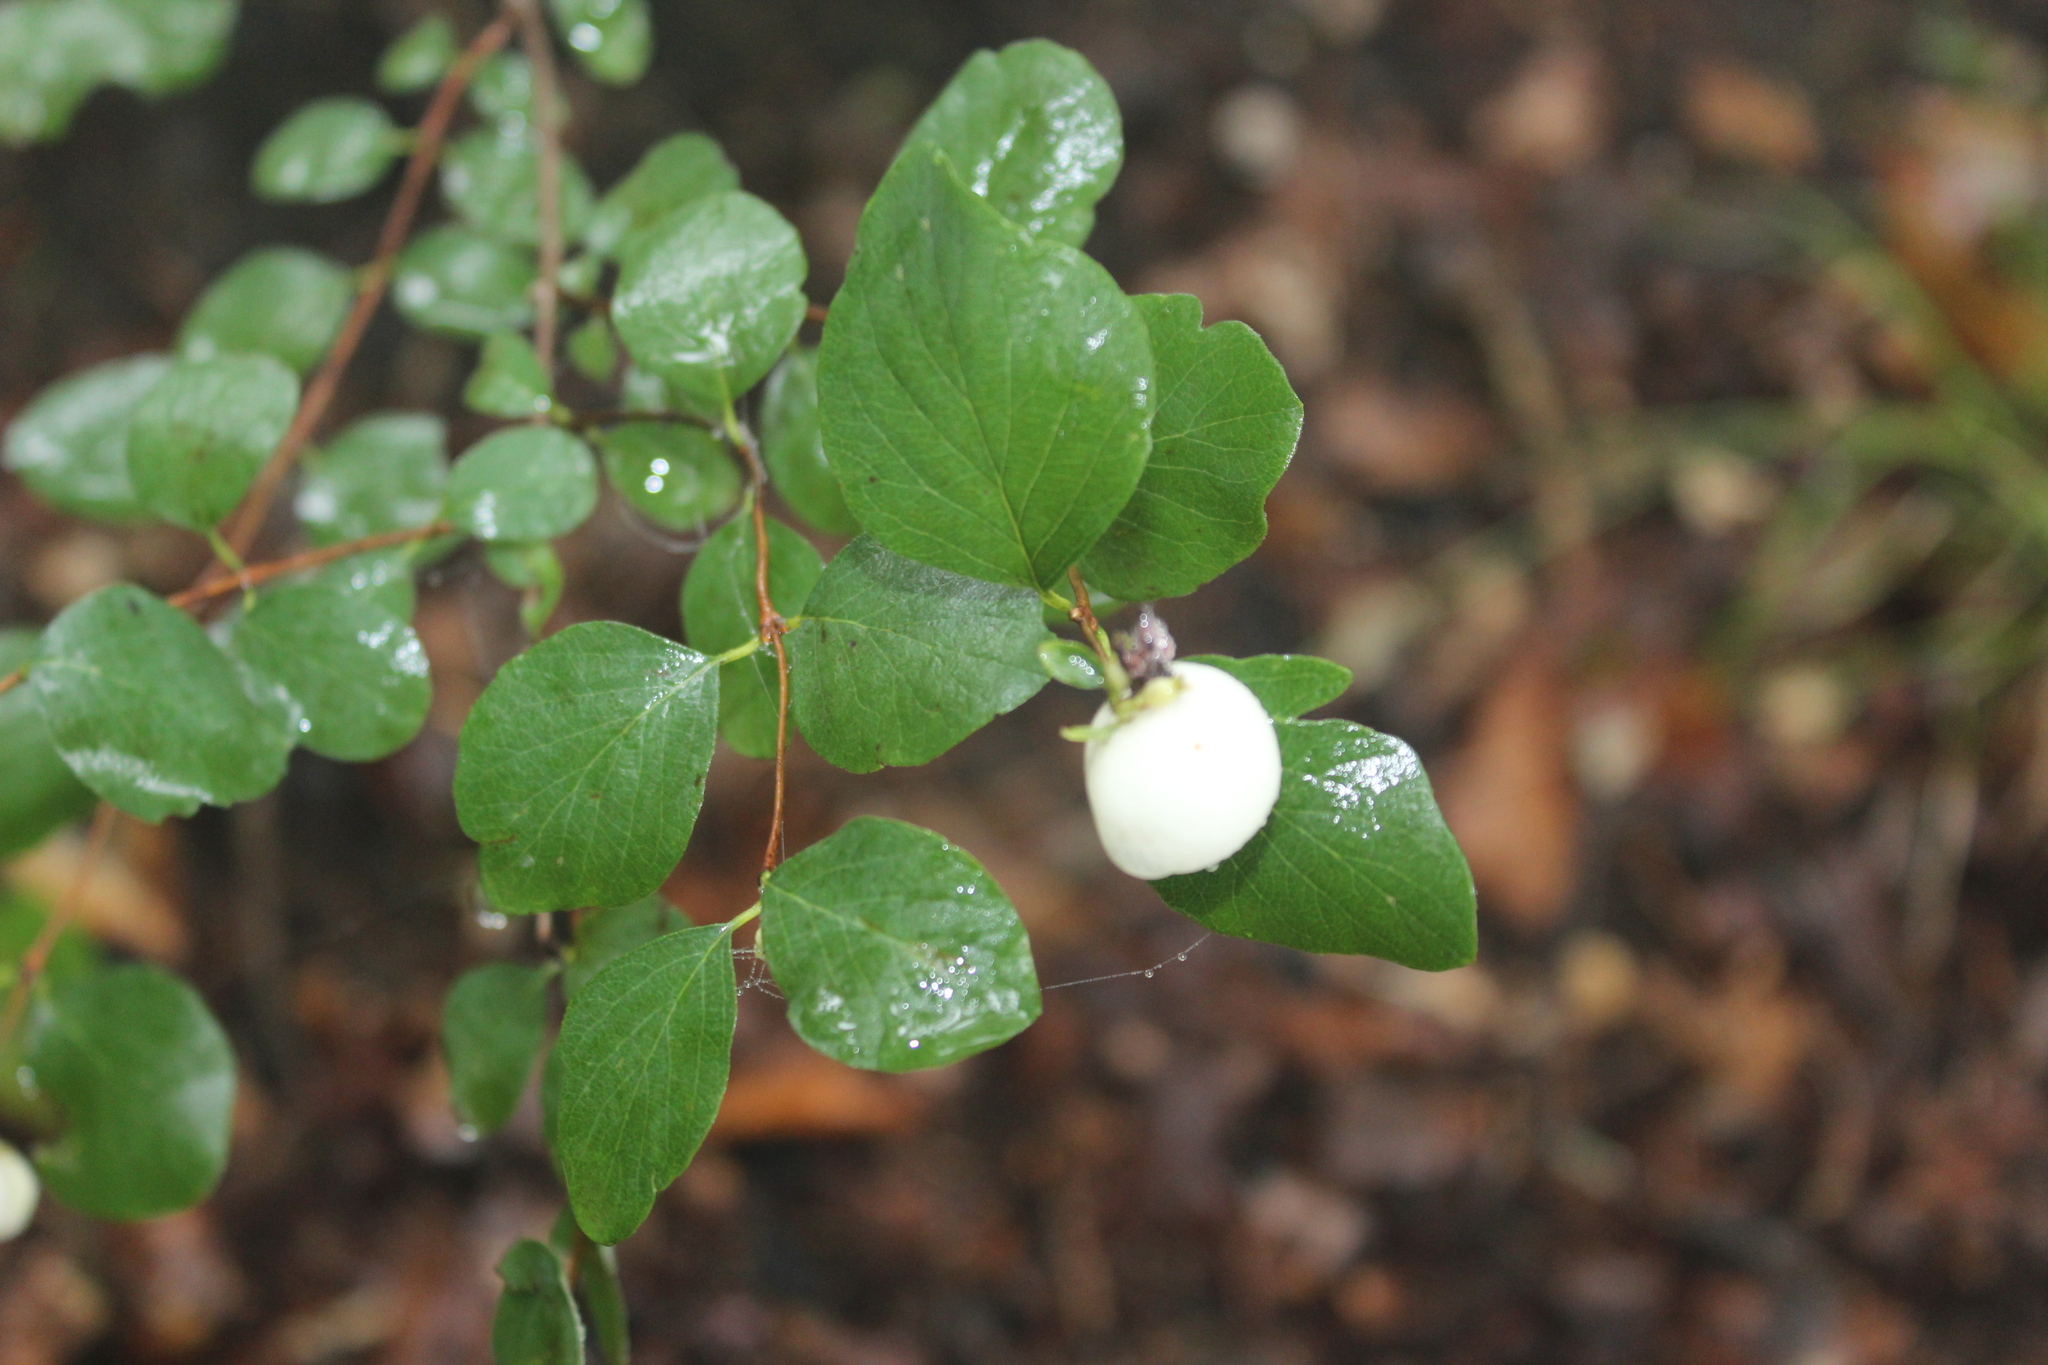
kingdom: Plantae
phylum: Tracheophyta
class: Magnoliopsida
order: Dipsacales
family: Caprifoliaceae
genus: Symphoricarpos
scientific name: Symphoricarpos albus
